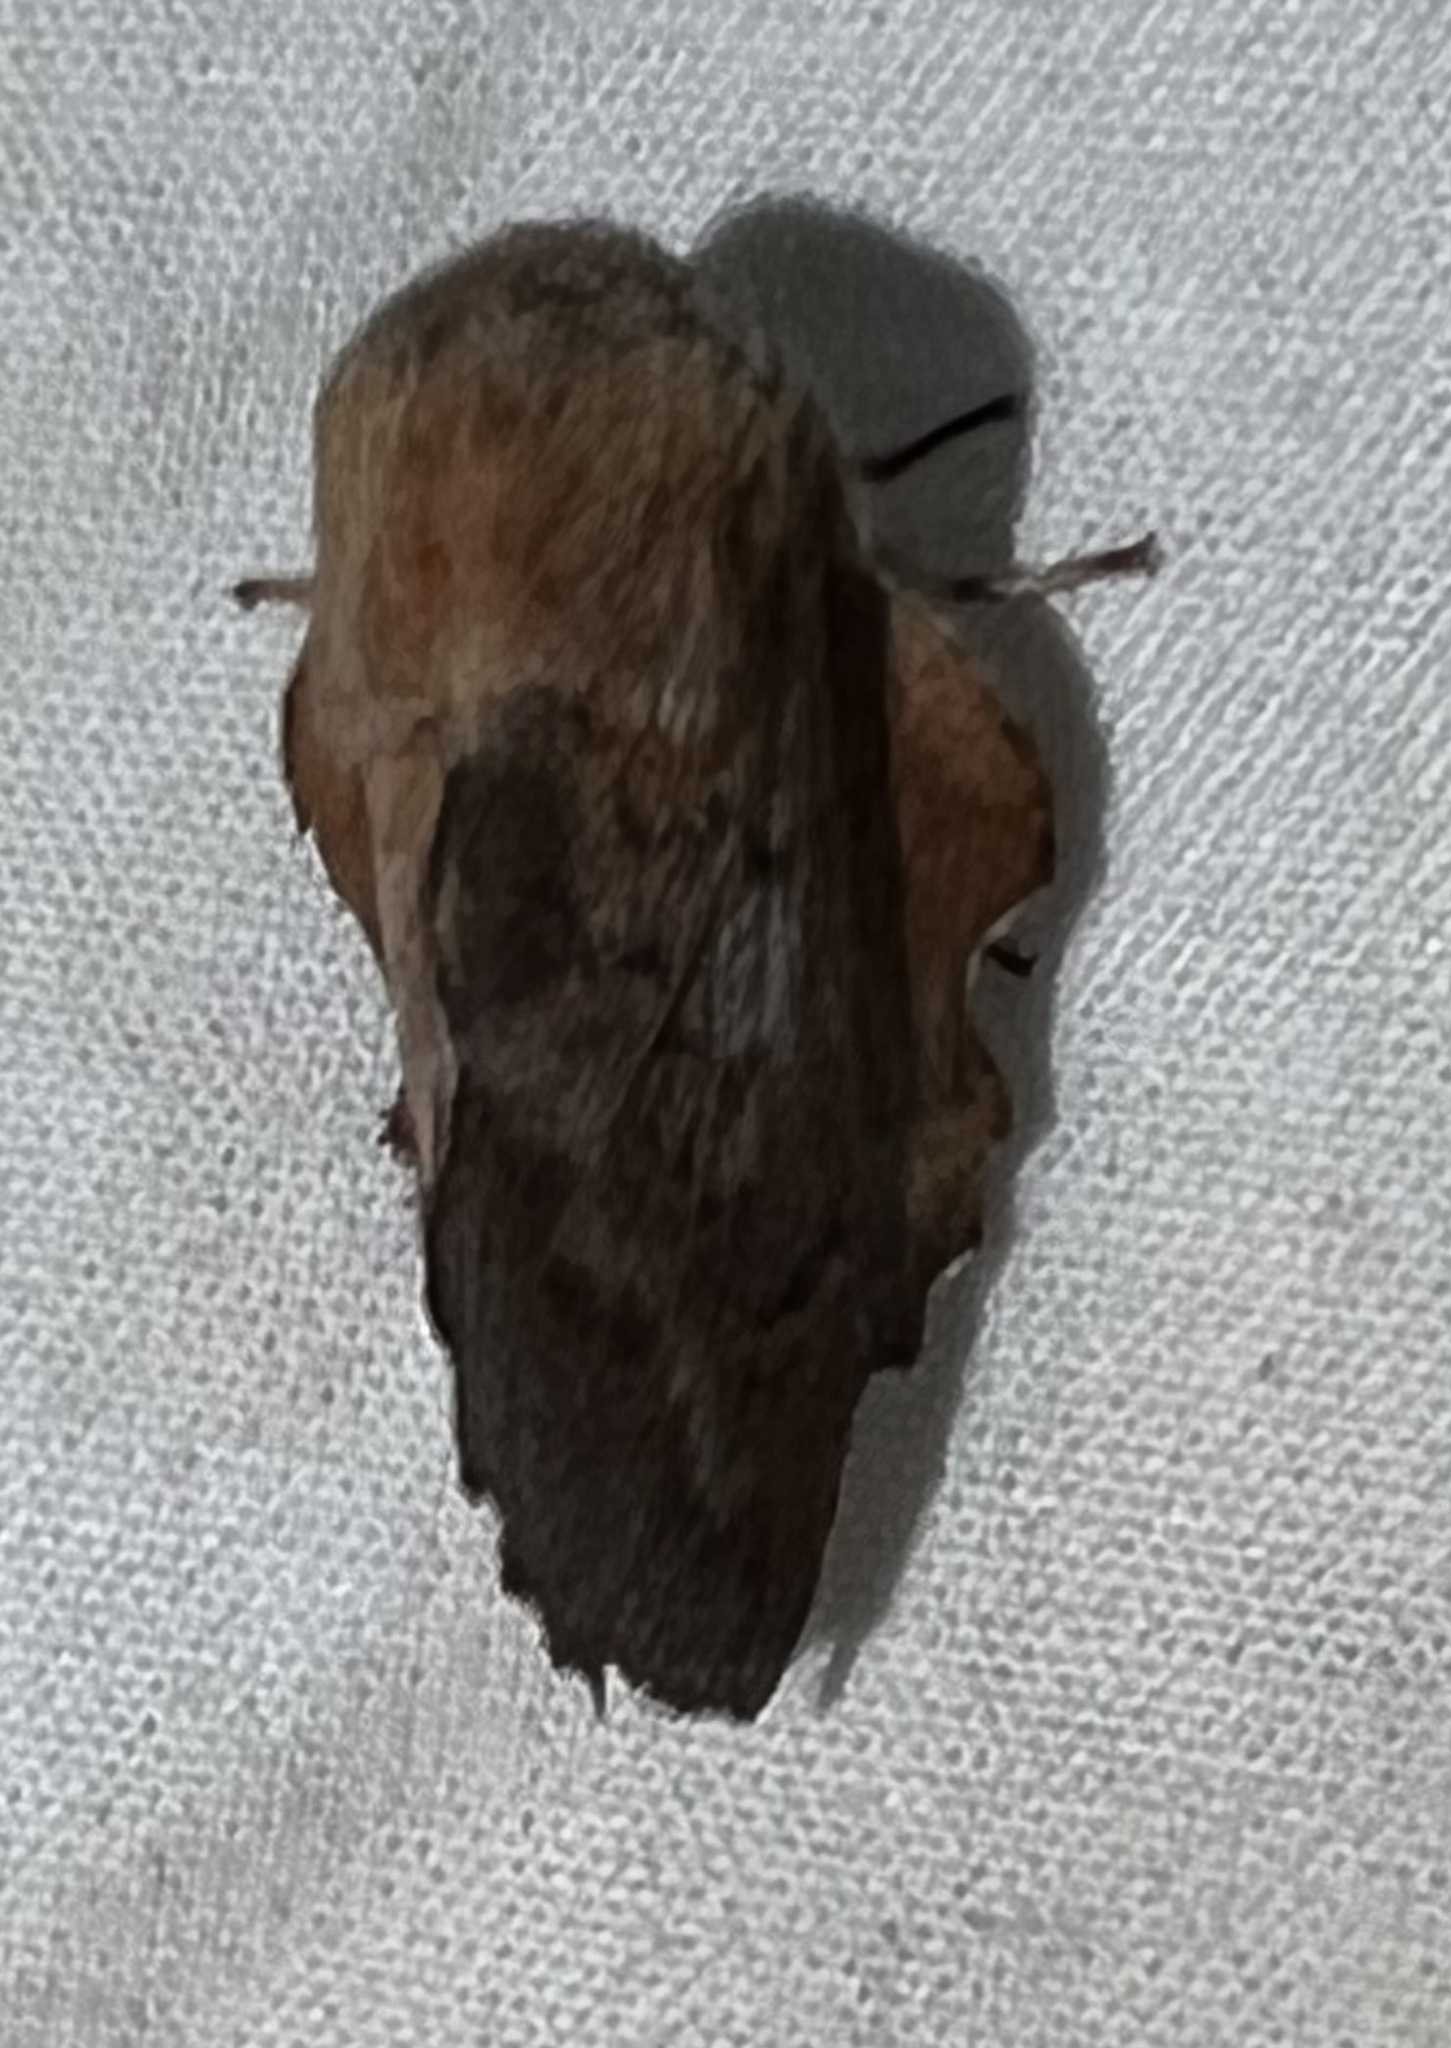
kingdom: Animalia
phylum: Arthropoda
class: Insecta
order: Lepidoptera
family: Lasiocampidae
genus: Phyllodesma
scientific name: Phyllodesma americana
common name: American lappet moth
